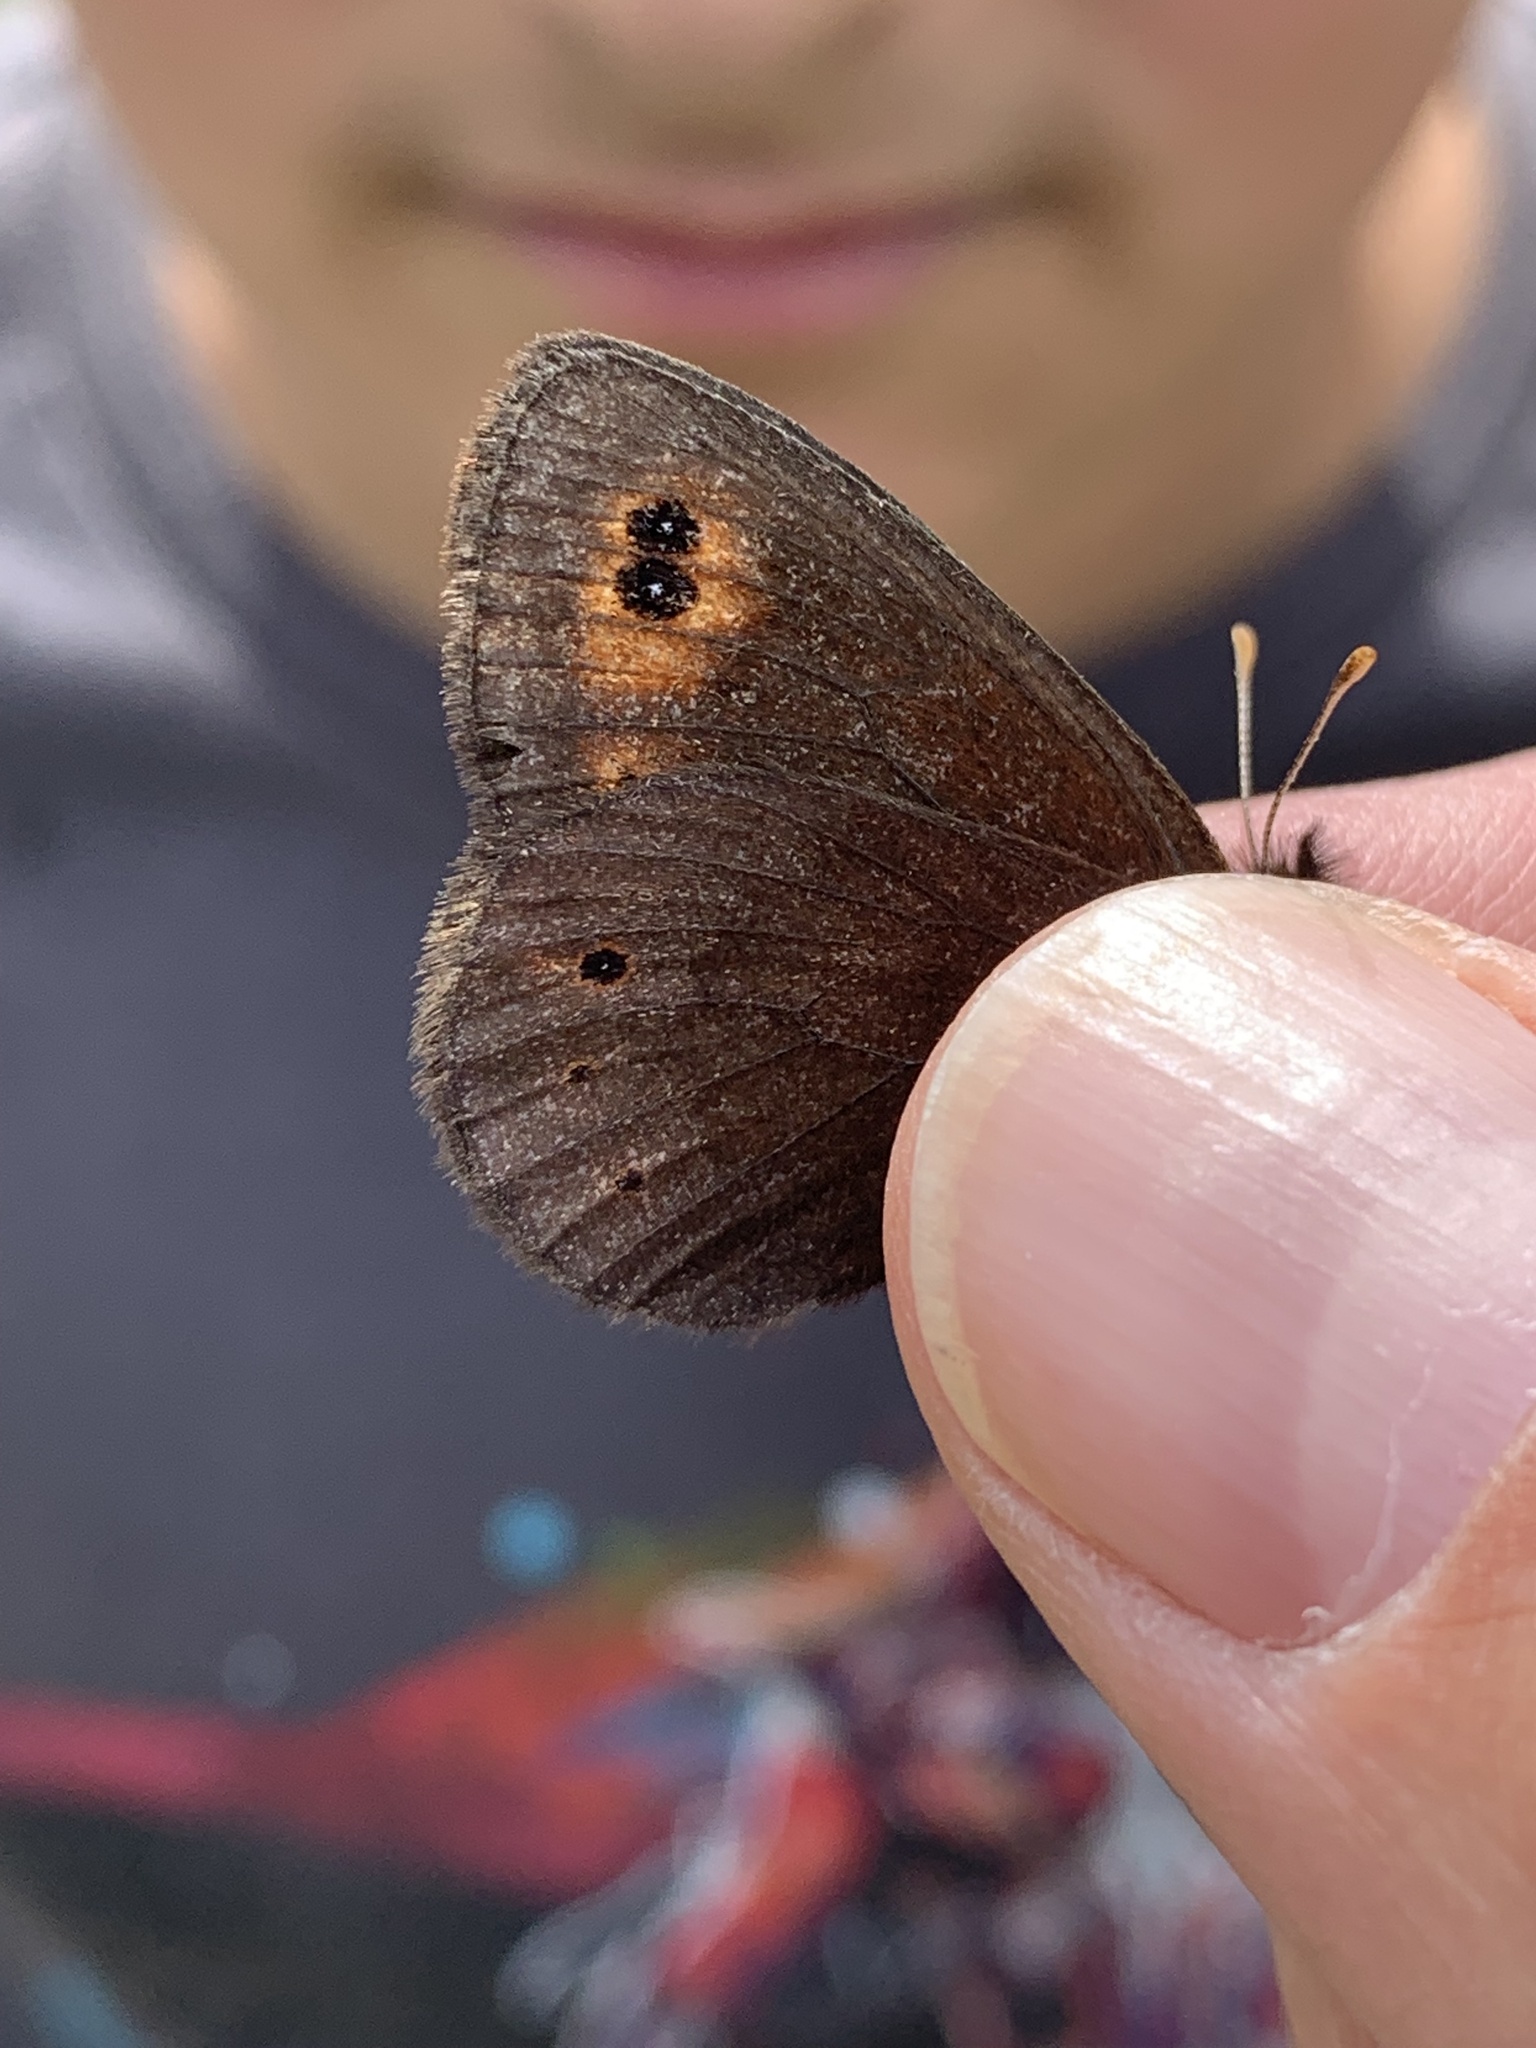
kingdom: Animalia
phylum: Arthropoda
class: Insecta
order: Lepidoptera
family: Nymphalidae
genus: Erebia
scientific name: Erebia epipsodea
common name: Common alpine
